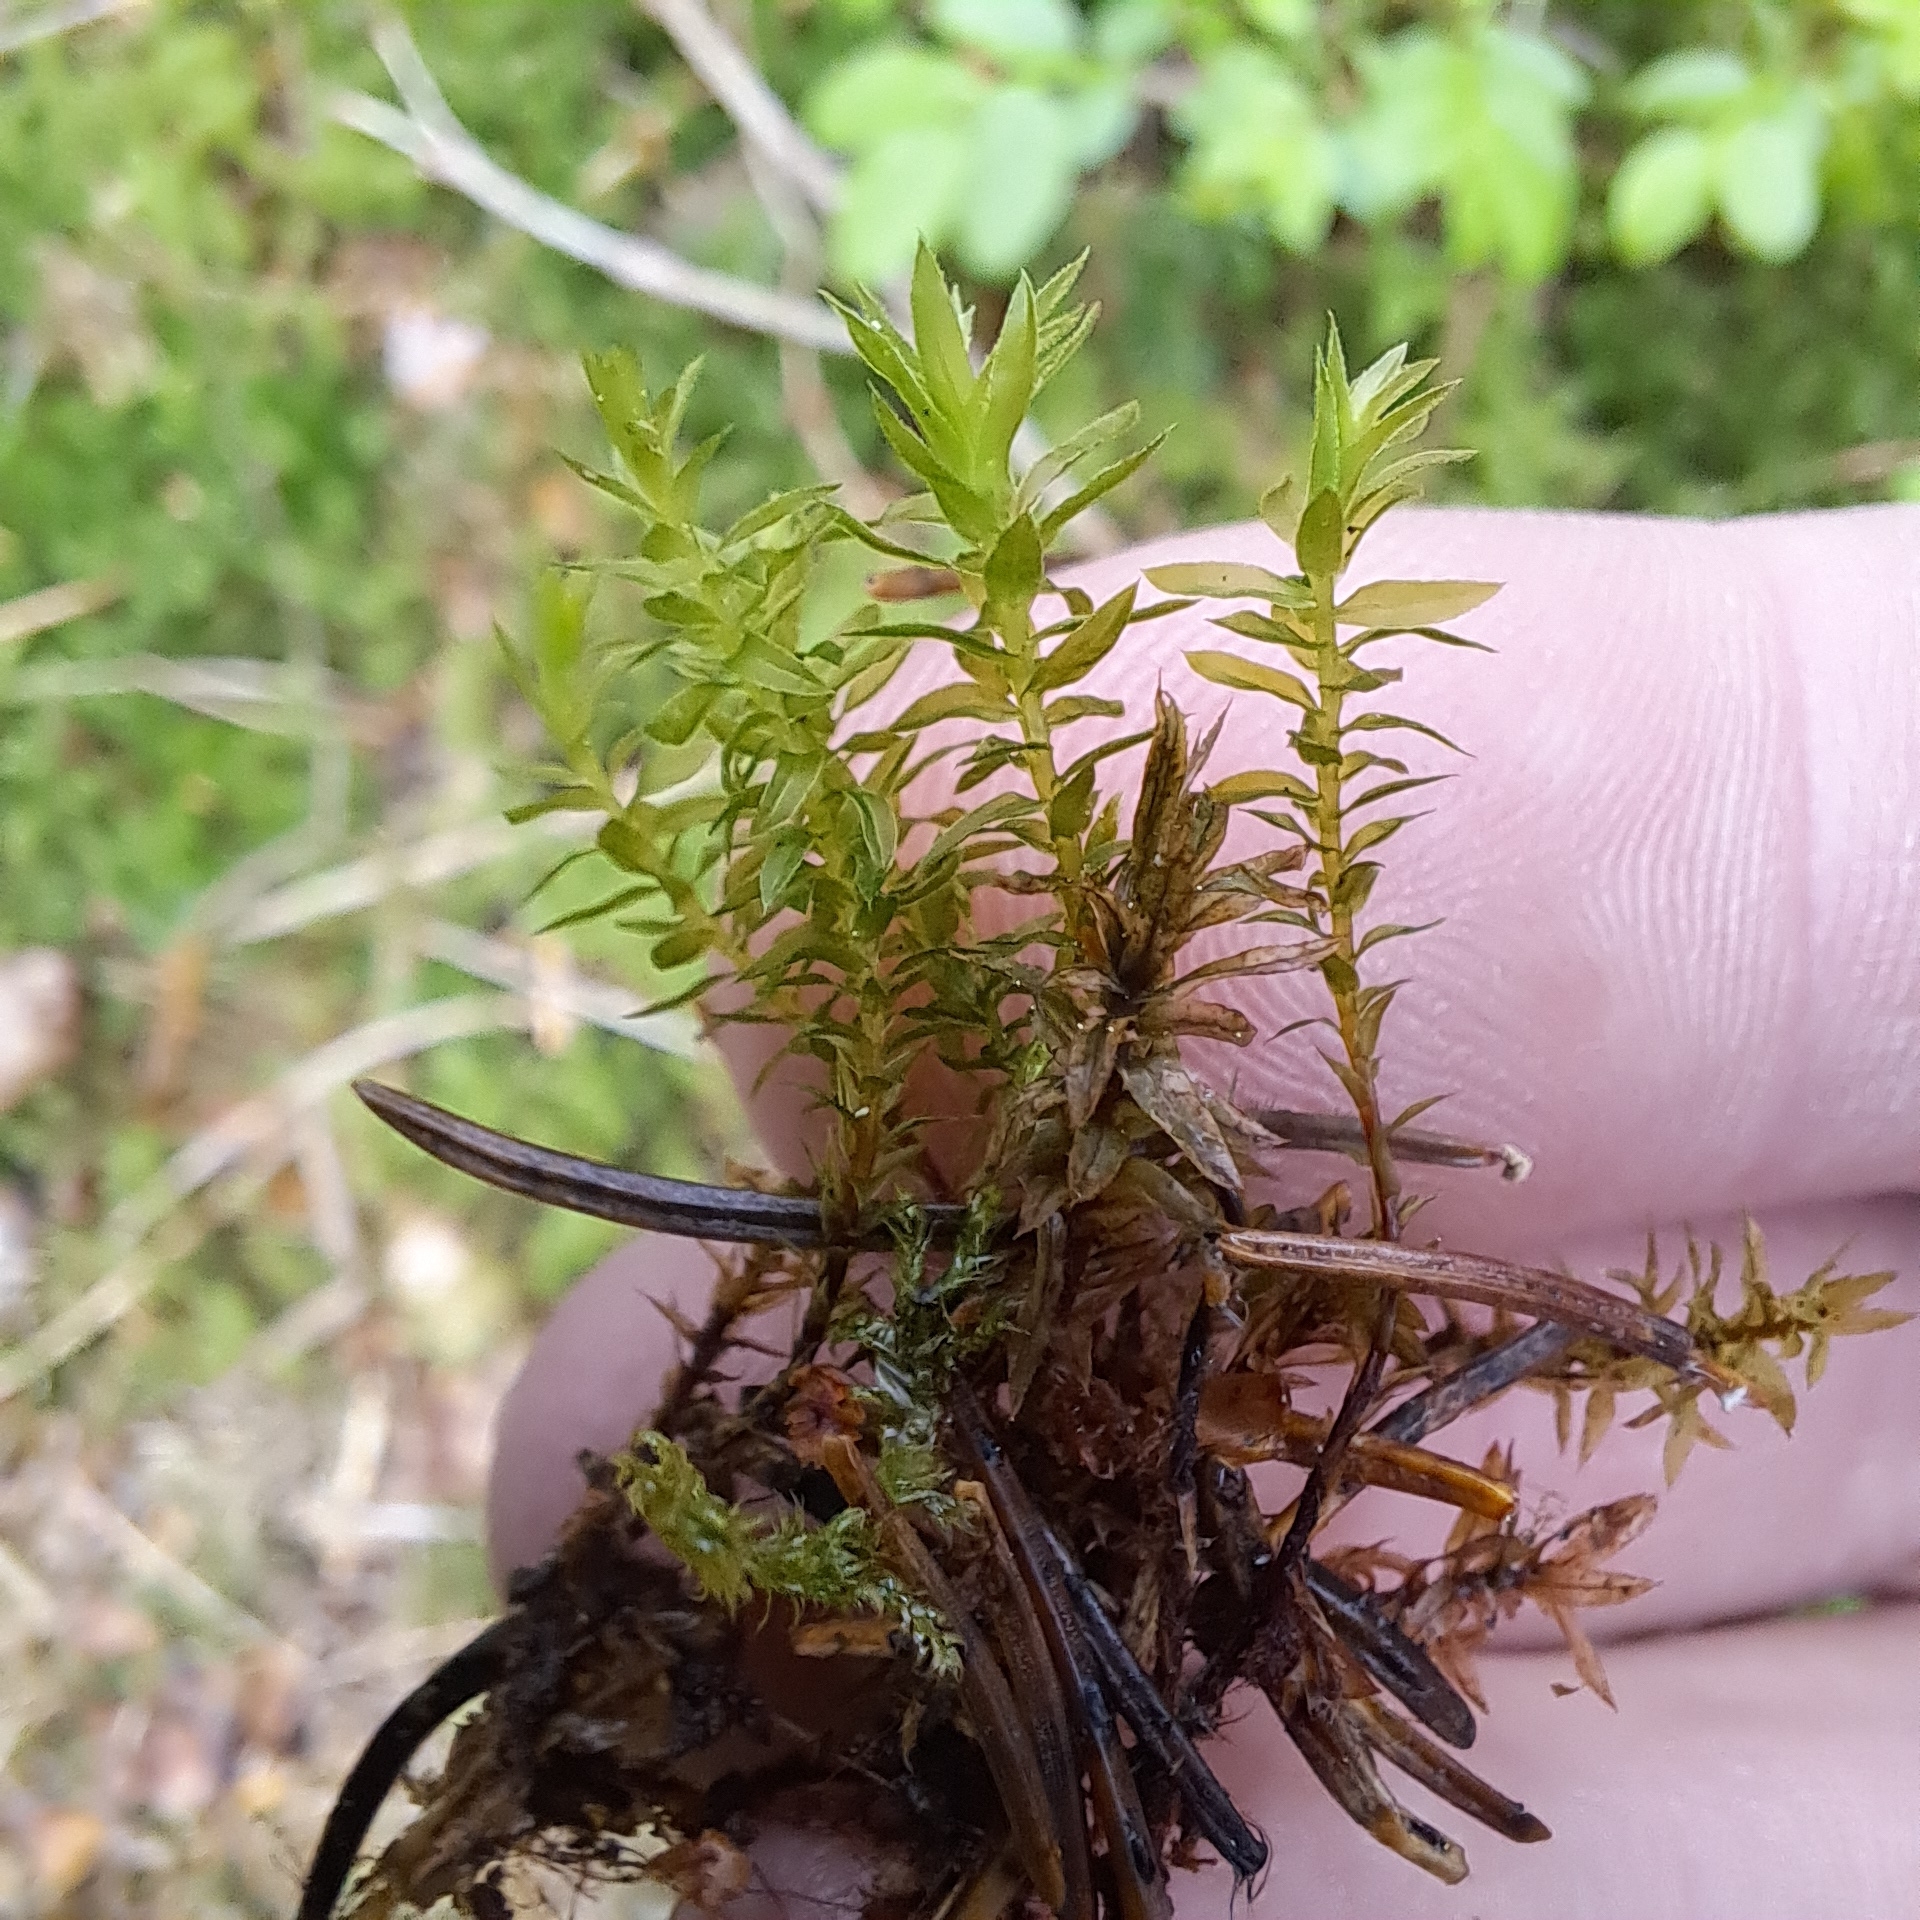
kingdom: Plantae
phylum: Bryophyta
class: Bryopsida
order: Bryales
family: Mniaceae
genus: Mnium
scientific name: Mnium hornum
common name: Swan's-neck leafy moss
